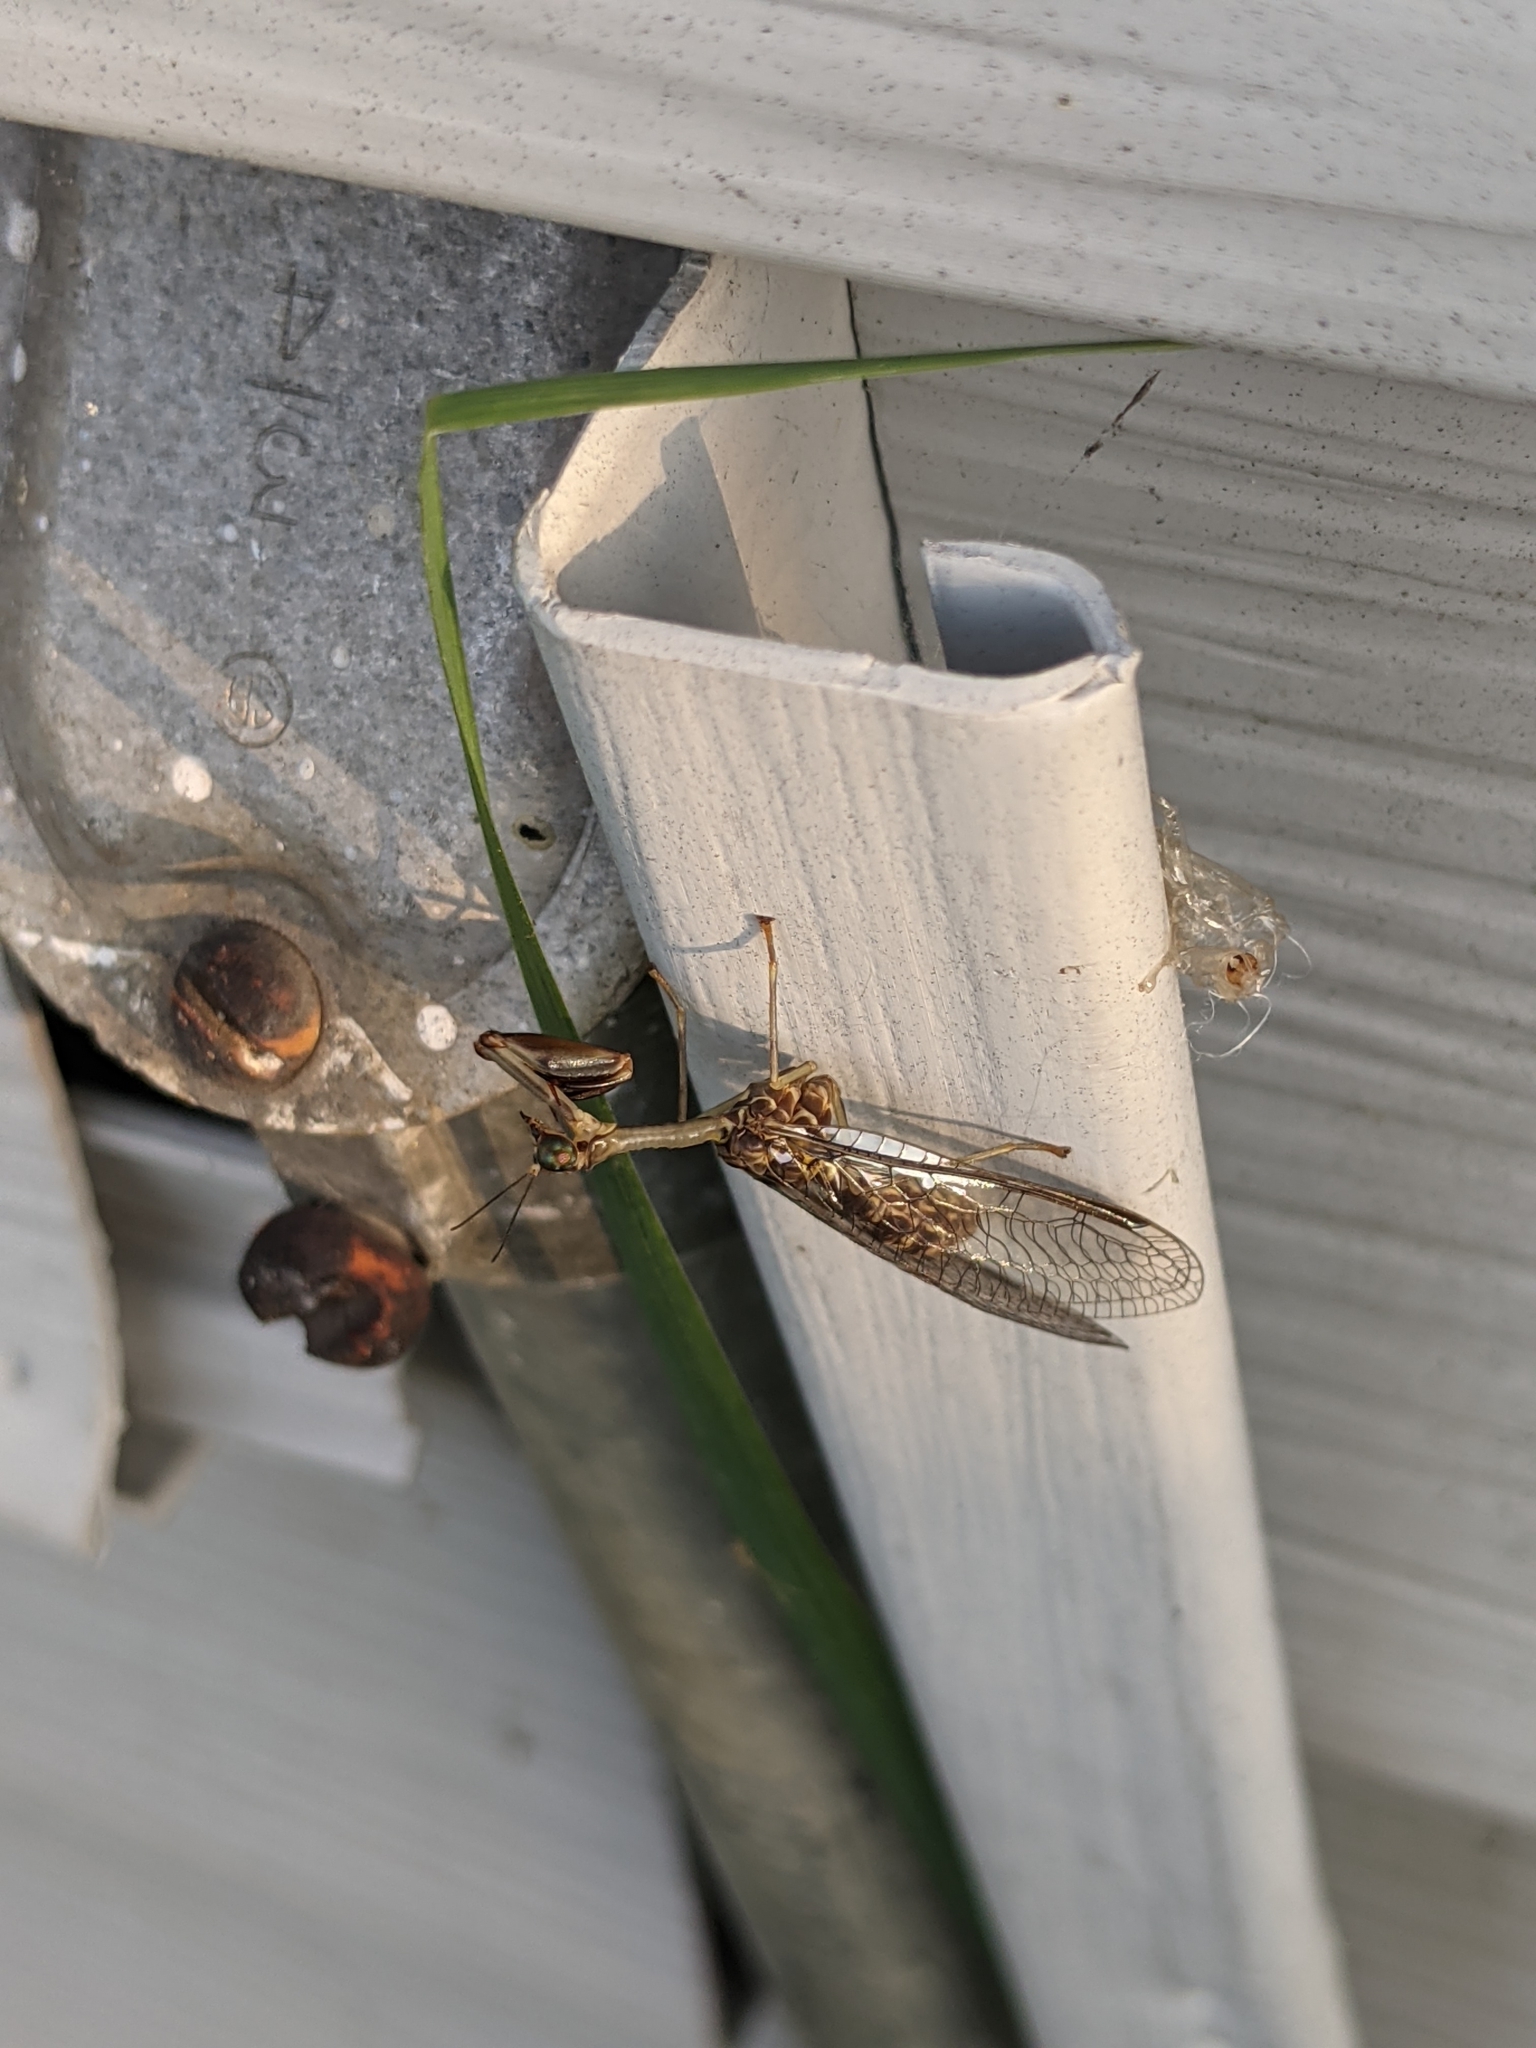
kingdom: Animalia
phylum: Arthropoda
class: Insecta
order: Neuroptera
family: Mantispidae
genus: Dicromantispa
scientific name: Dicromantispa sayi
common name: Say's mantidfly
